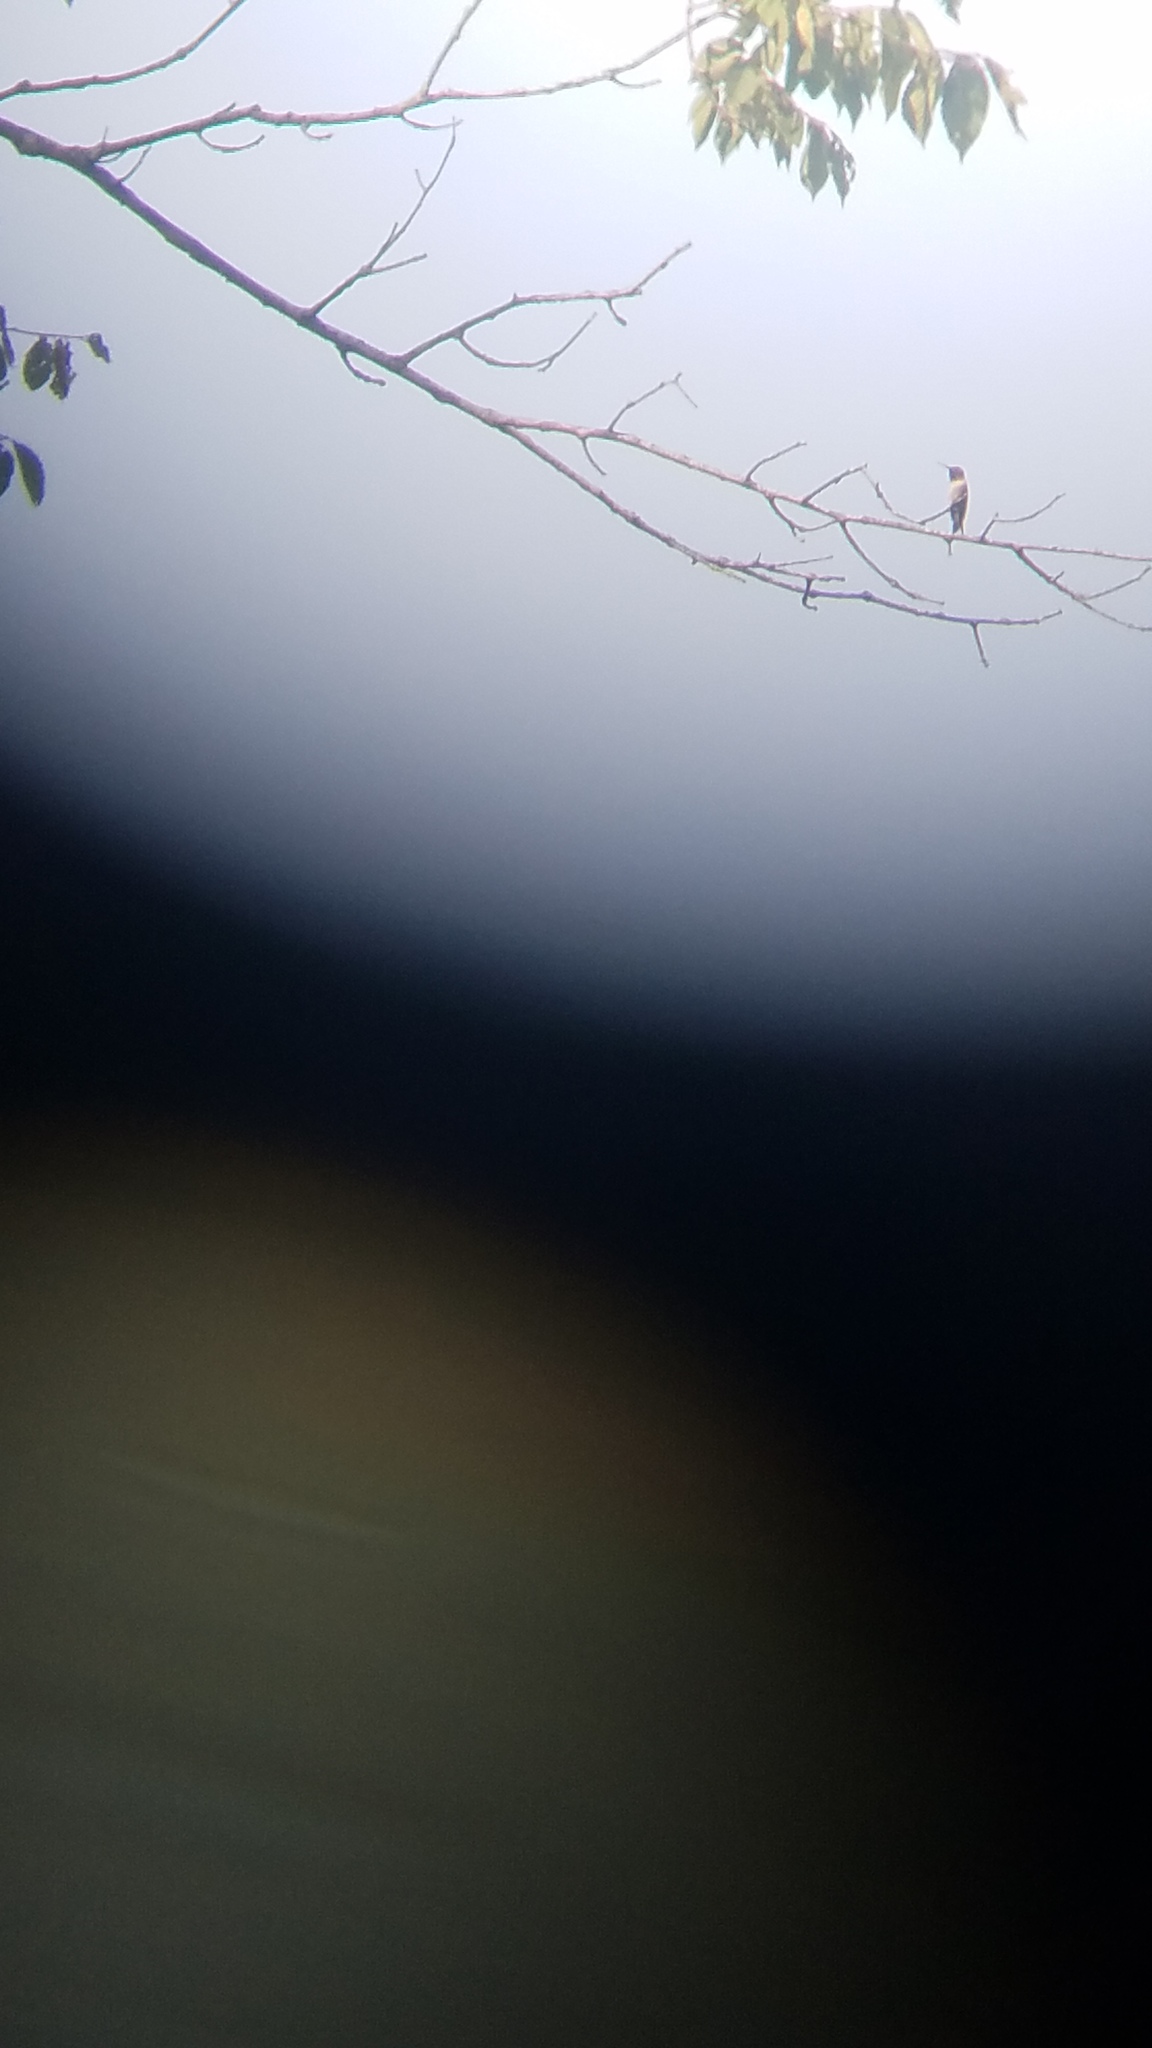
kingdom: Animalia
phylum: Chordata
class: Aves
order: Apodiformes
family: Trochilidae
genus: Archilochus
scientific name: Archilochus colubris
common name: Ruby-throated hummingbird
